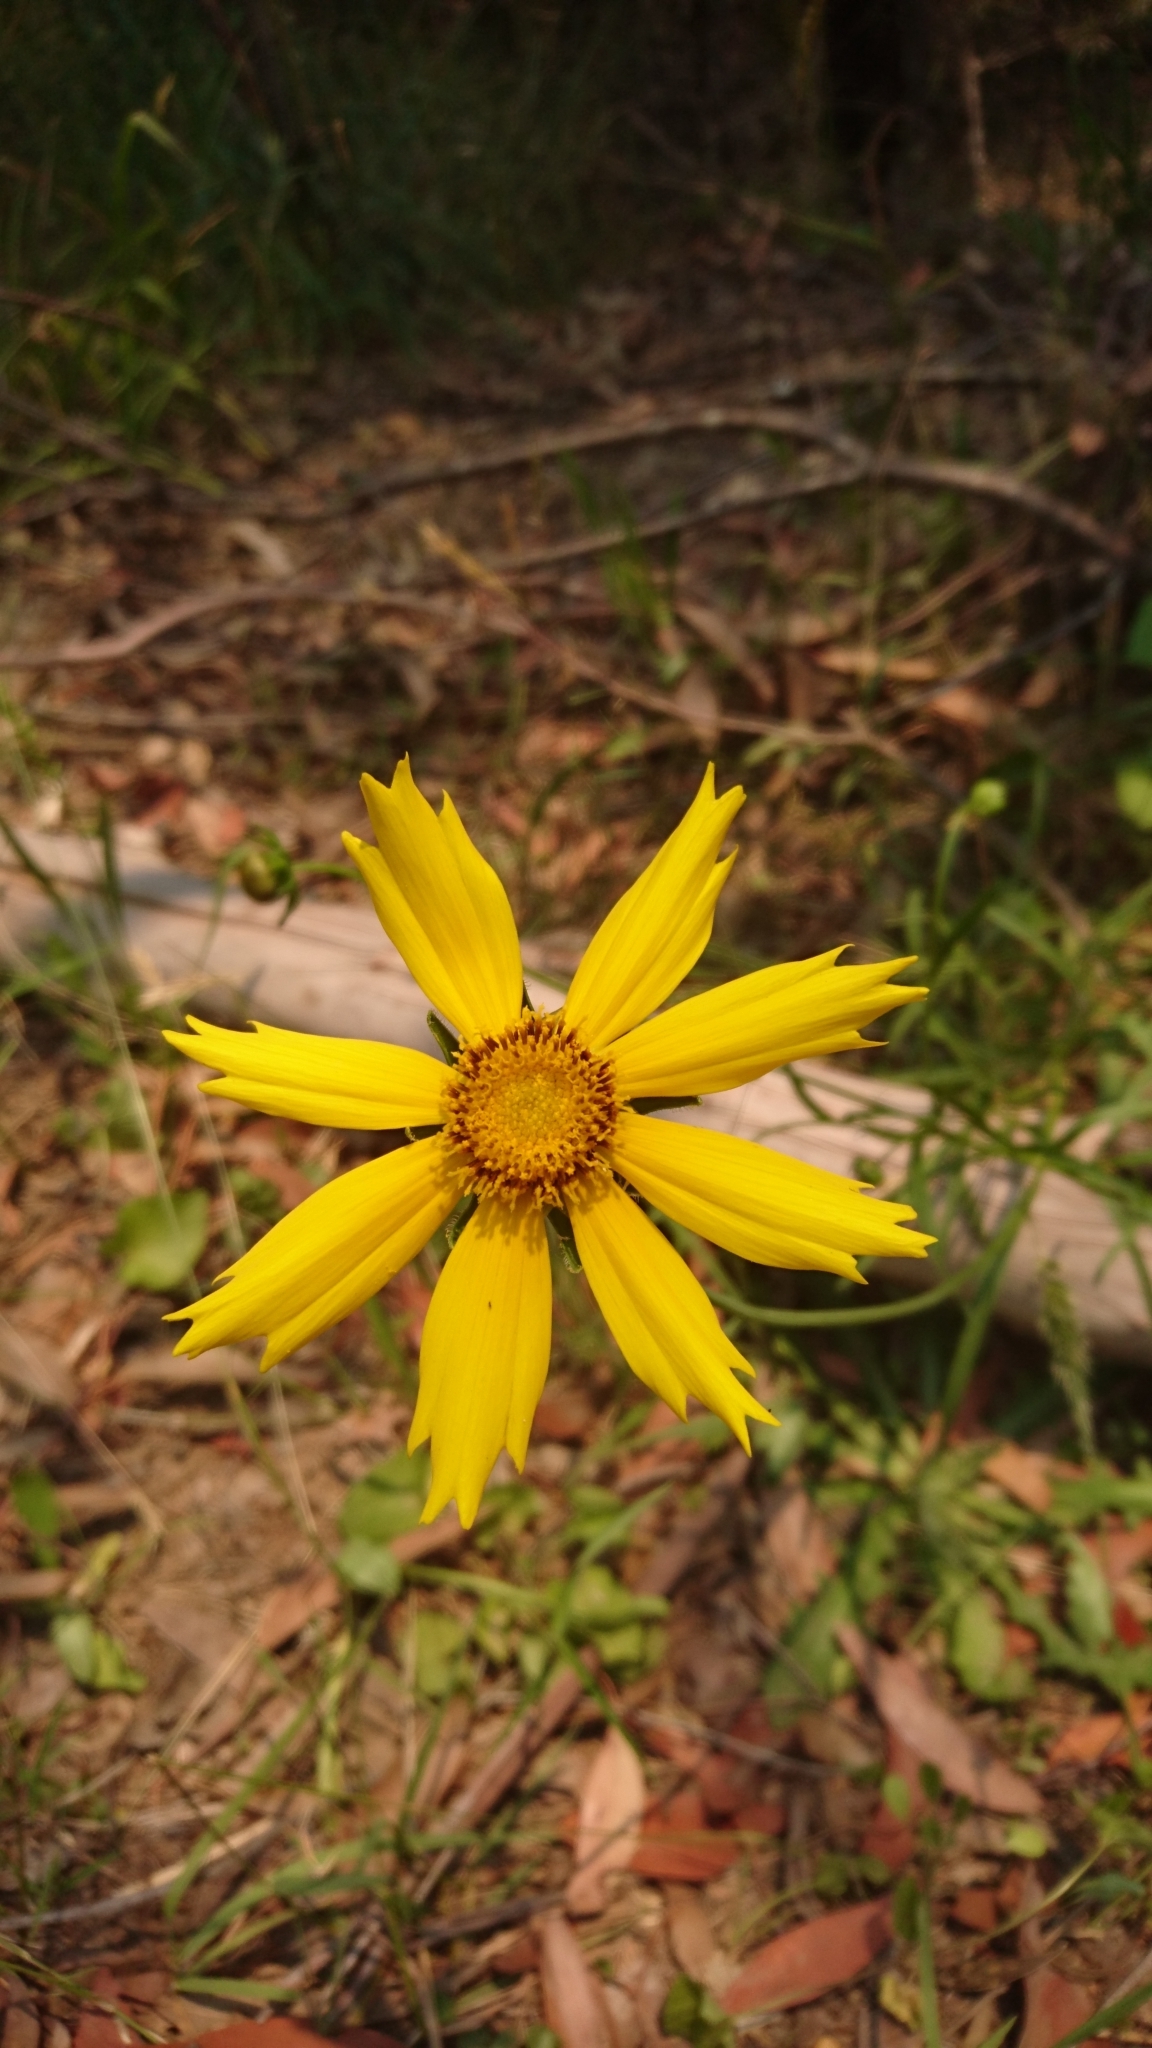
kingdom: Plantae
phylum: Tracheophyta
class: Magnoliopsida
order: Asterales
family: Asteraceae
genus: Coreopsis
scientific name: Coreopsis lanceolata
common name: Garden coreopsis
